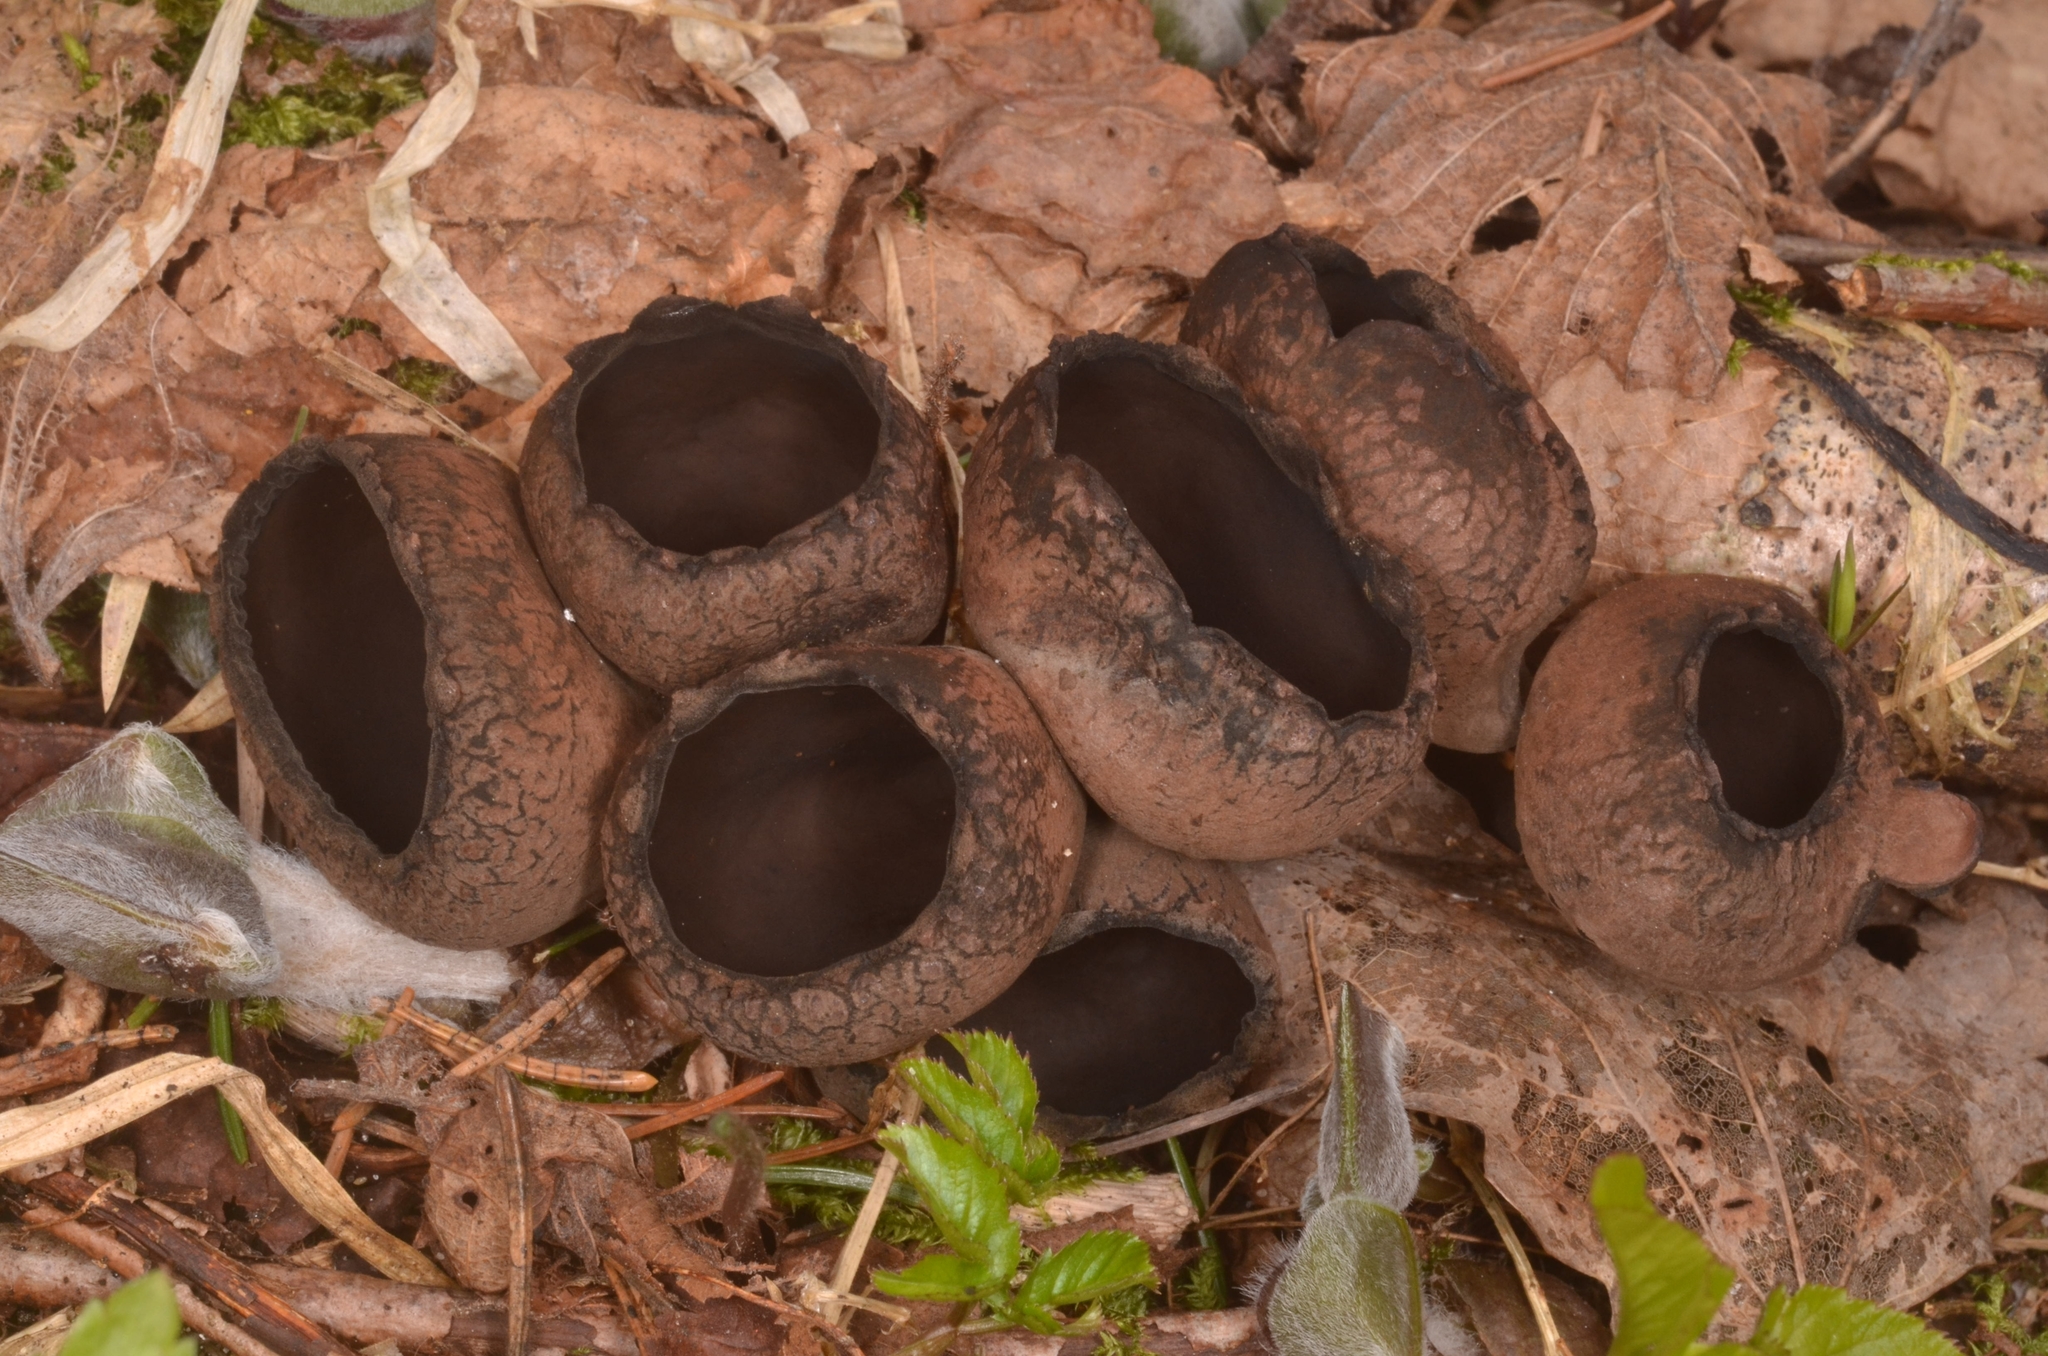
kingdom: Fungi
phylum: Ascomycota
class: Pezizomycetes
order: Pezizales
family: Sarcosomataceae
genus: Urnula
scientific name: Urnula craterium
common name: Devil's urn
